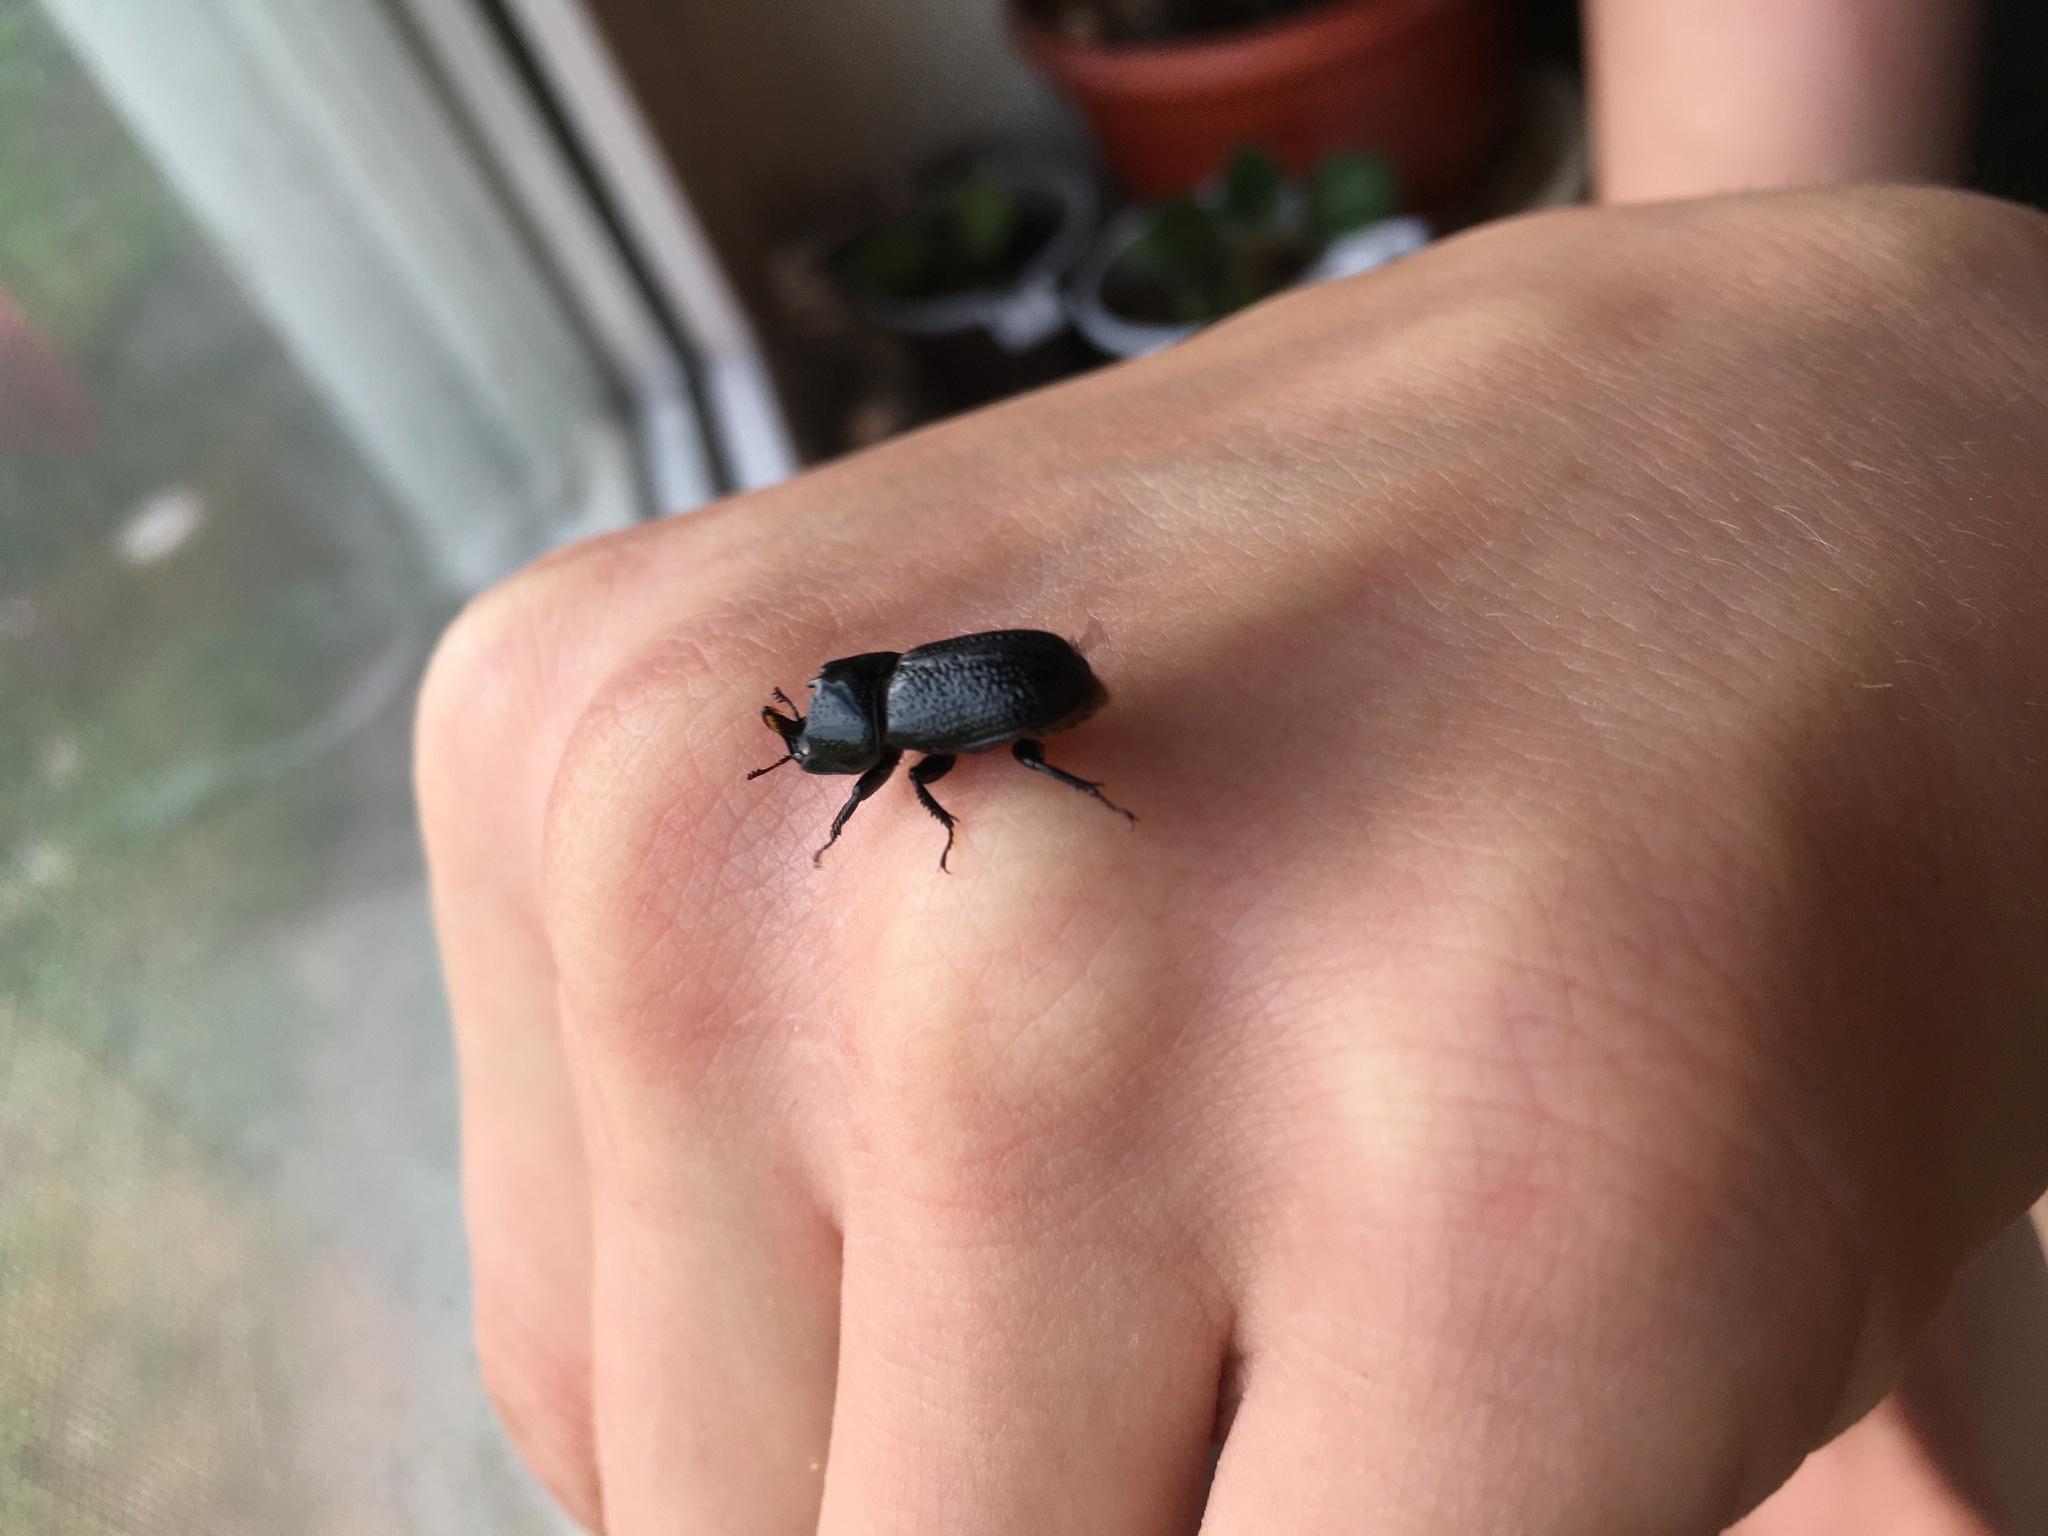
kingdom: Animalia
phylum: Arthropoda
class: Insecta
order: Coleoptera
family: Lucanidae
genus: Sinodendron
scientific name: Sinodendron cylindricum
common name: Rhinoceros beetle
